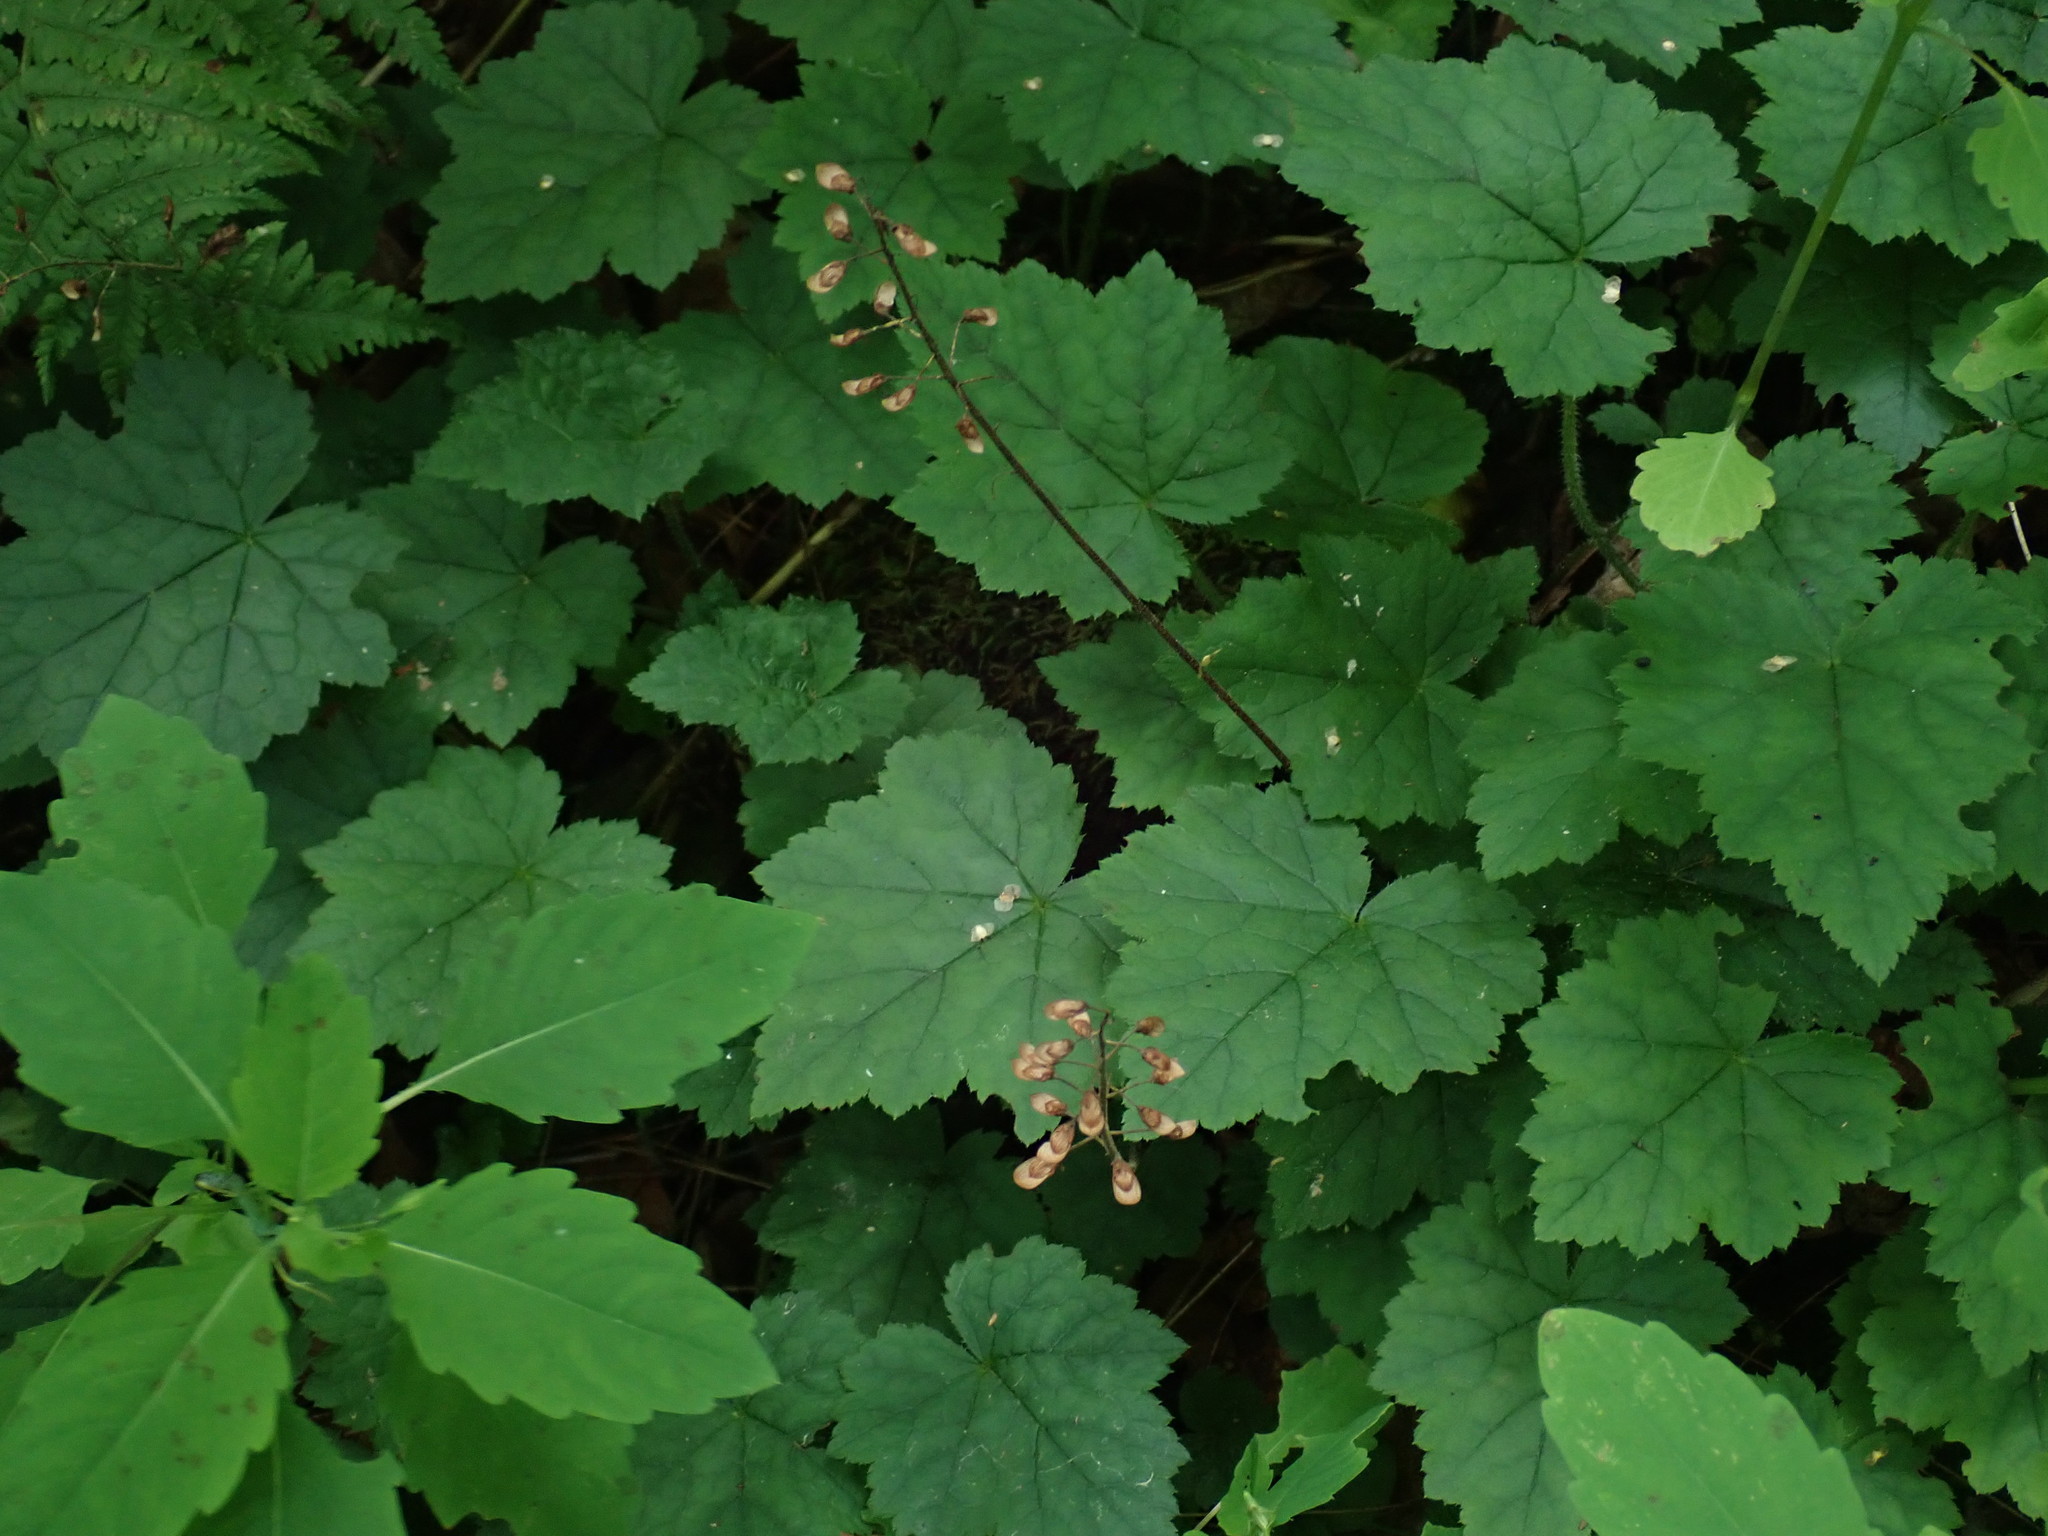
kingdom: Plantae
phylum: Tracheophyta
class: Magnoliopsida
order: Saxifragales
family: Saxifragaceae
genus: Tiarella
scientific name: Tiarella stolonifera
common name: Stoloniferous foamflower
